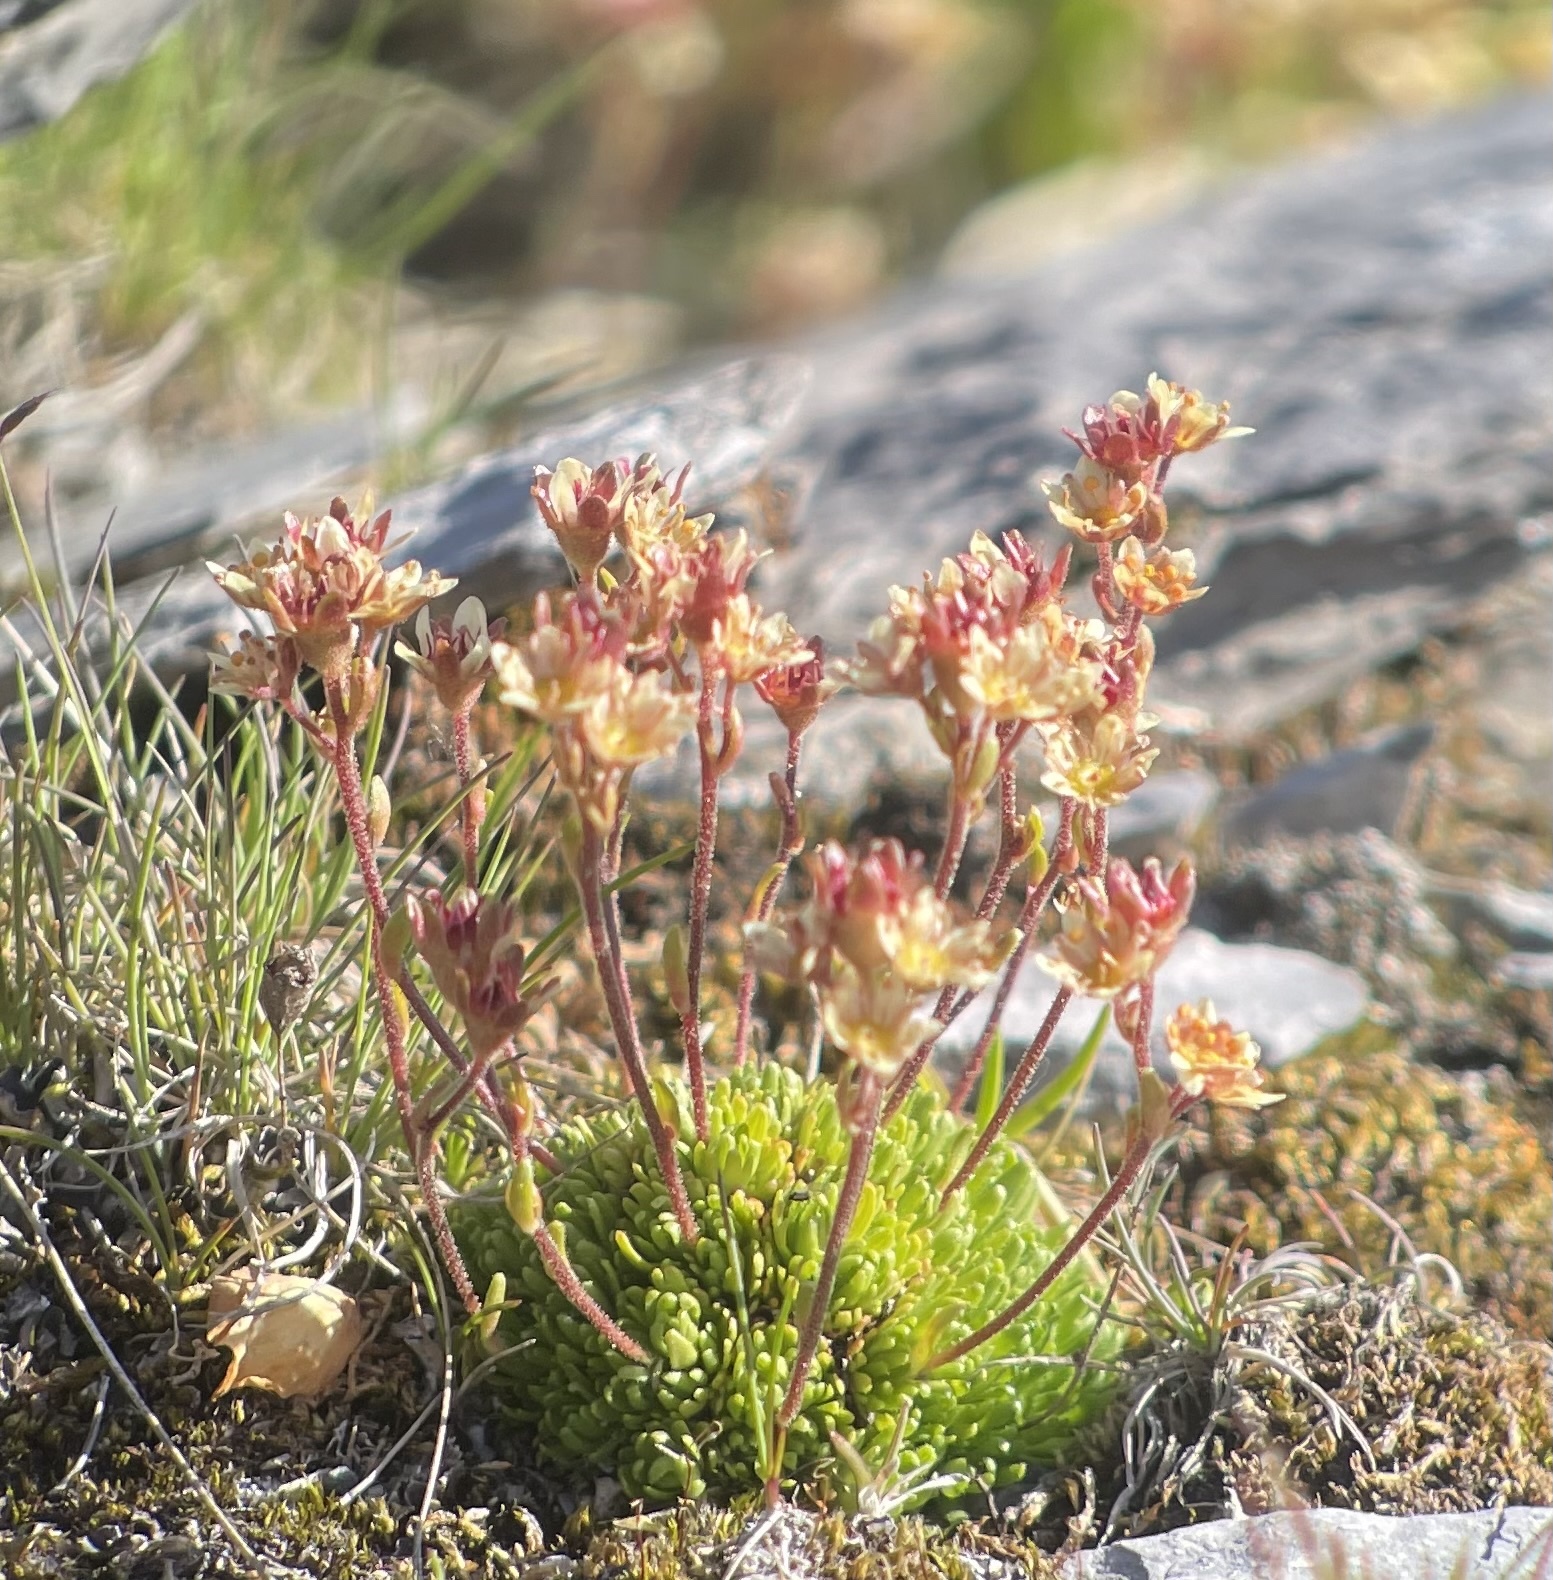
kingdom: Plantae
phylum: Tracheophyta
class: Magnoliopsida
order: Saxifragales
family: Saxifragaceae
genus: Saxifraga
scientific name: Saxifraga moschata
